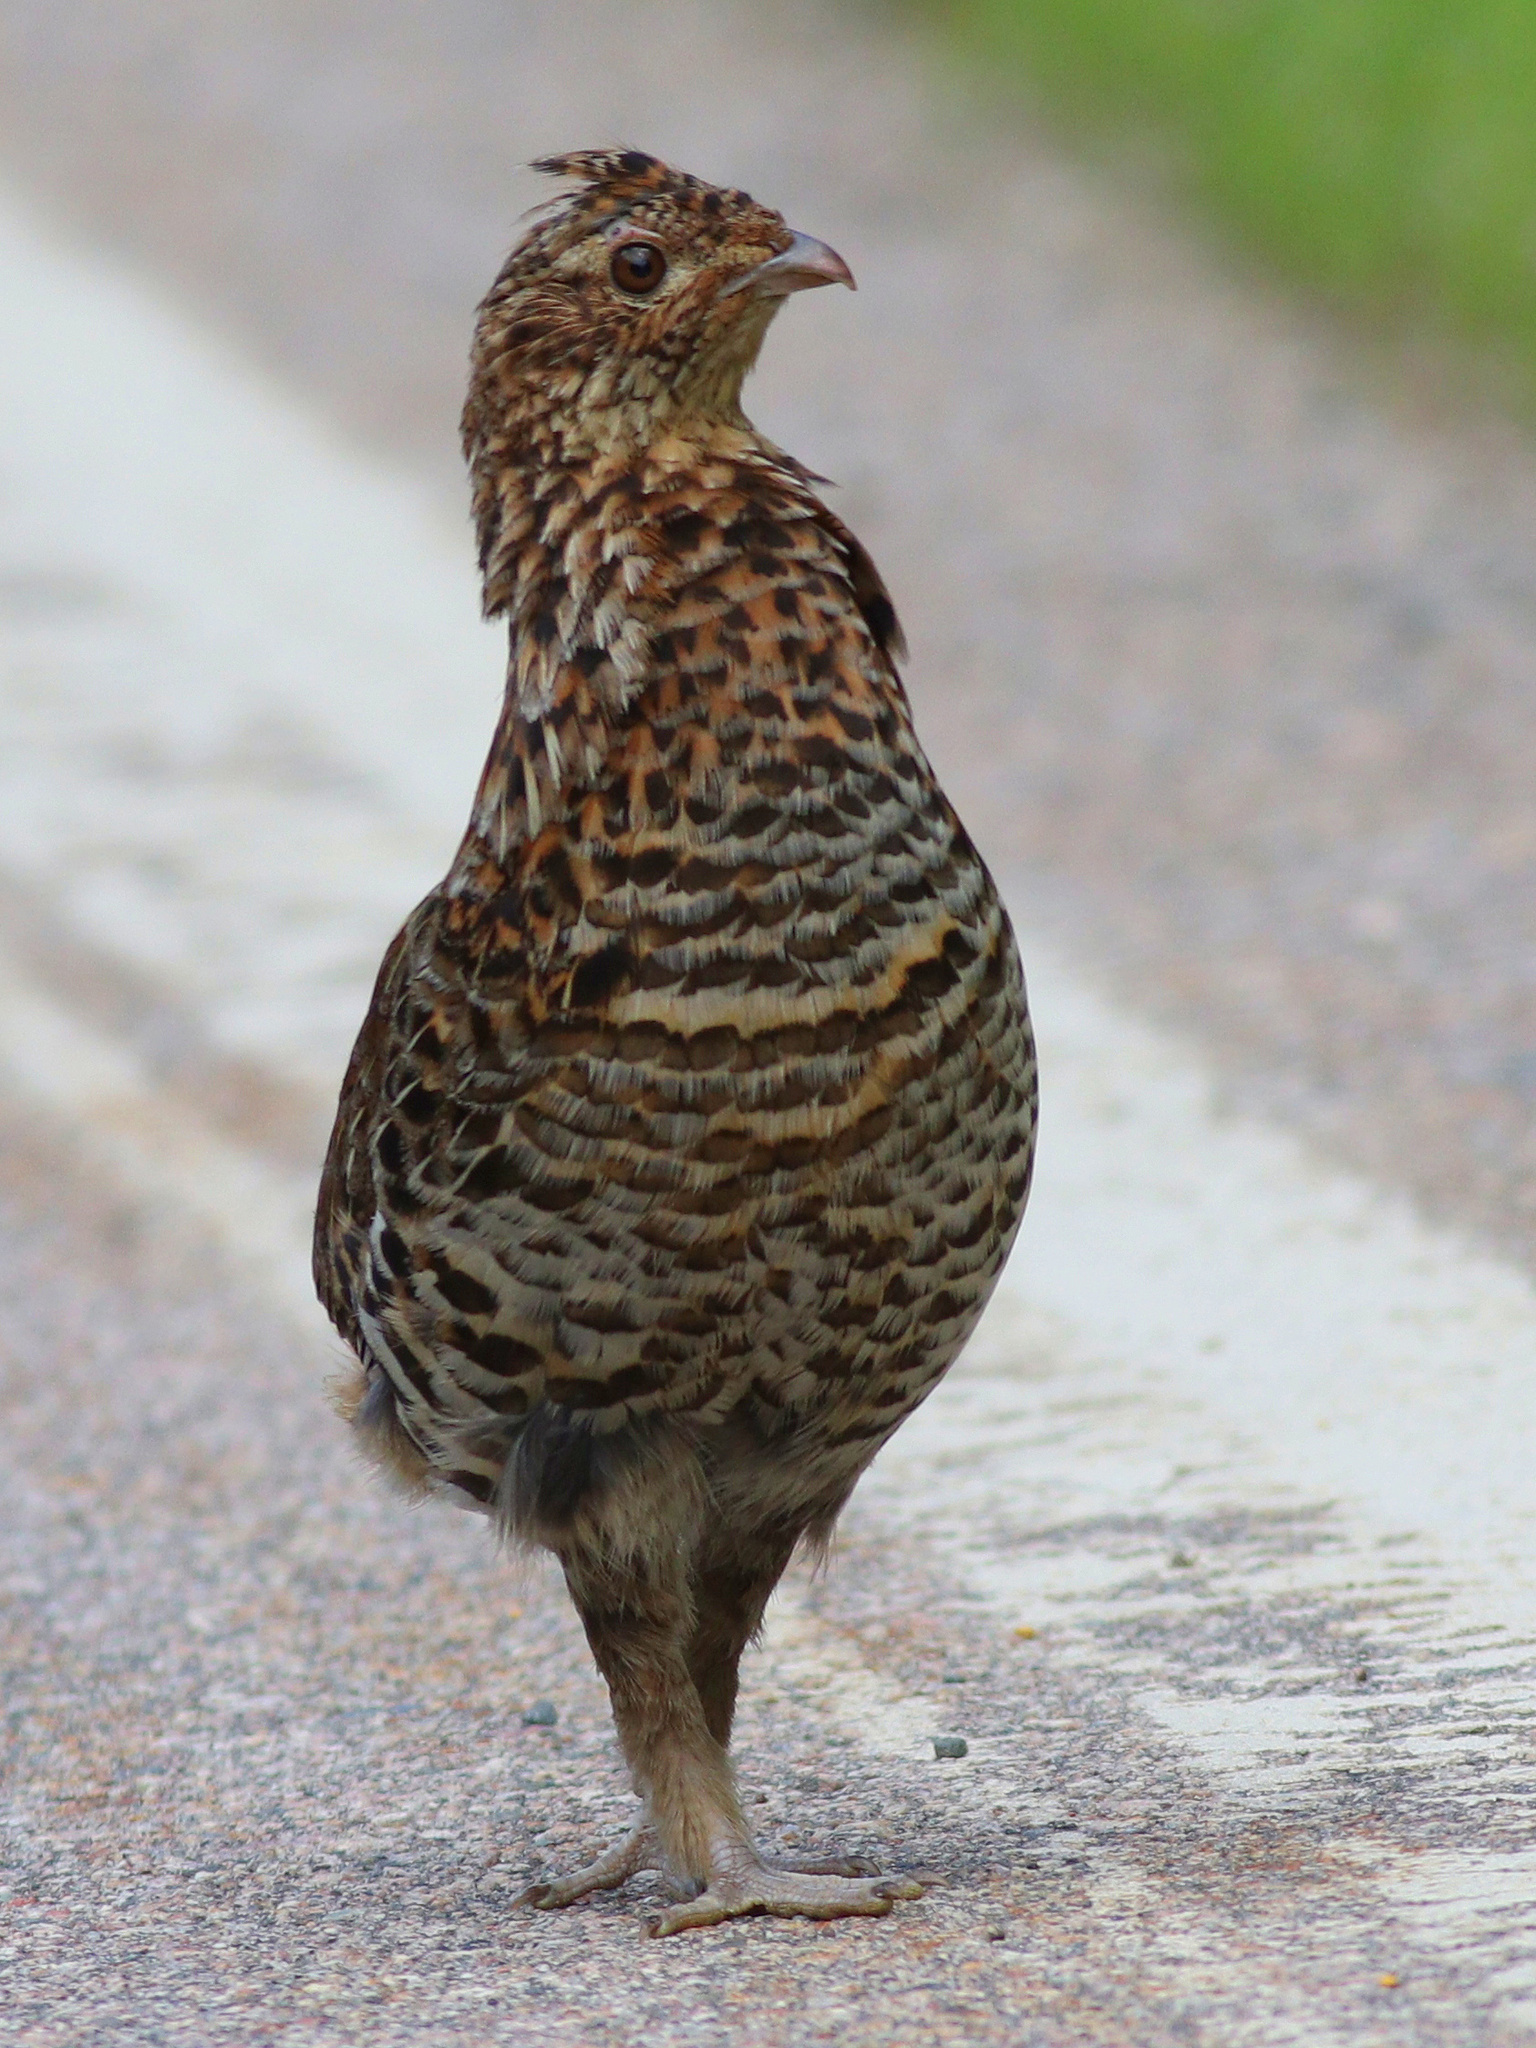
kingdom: Animalia
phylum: Chordata
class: Aves
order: Galliformes
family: Phasianidae
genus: Bonasa
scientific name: Bonasa umbellus
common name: Ruffed grouse
